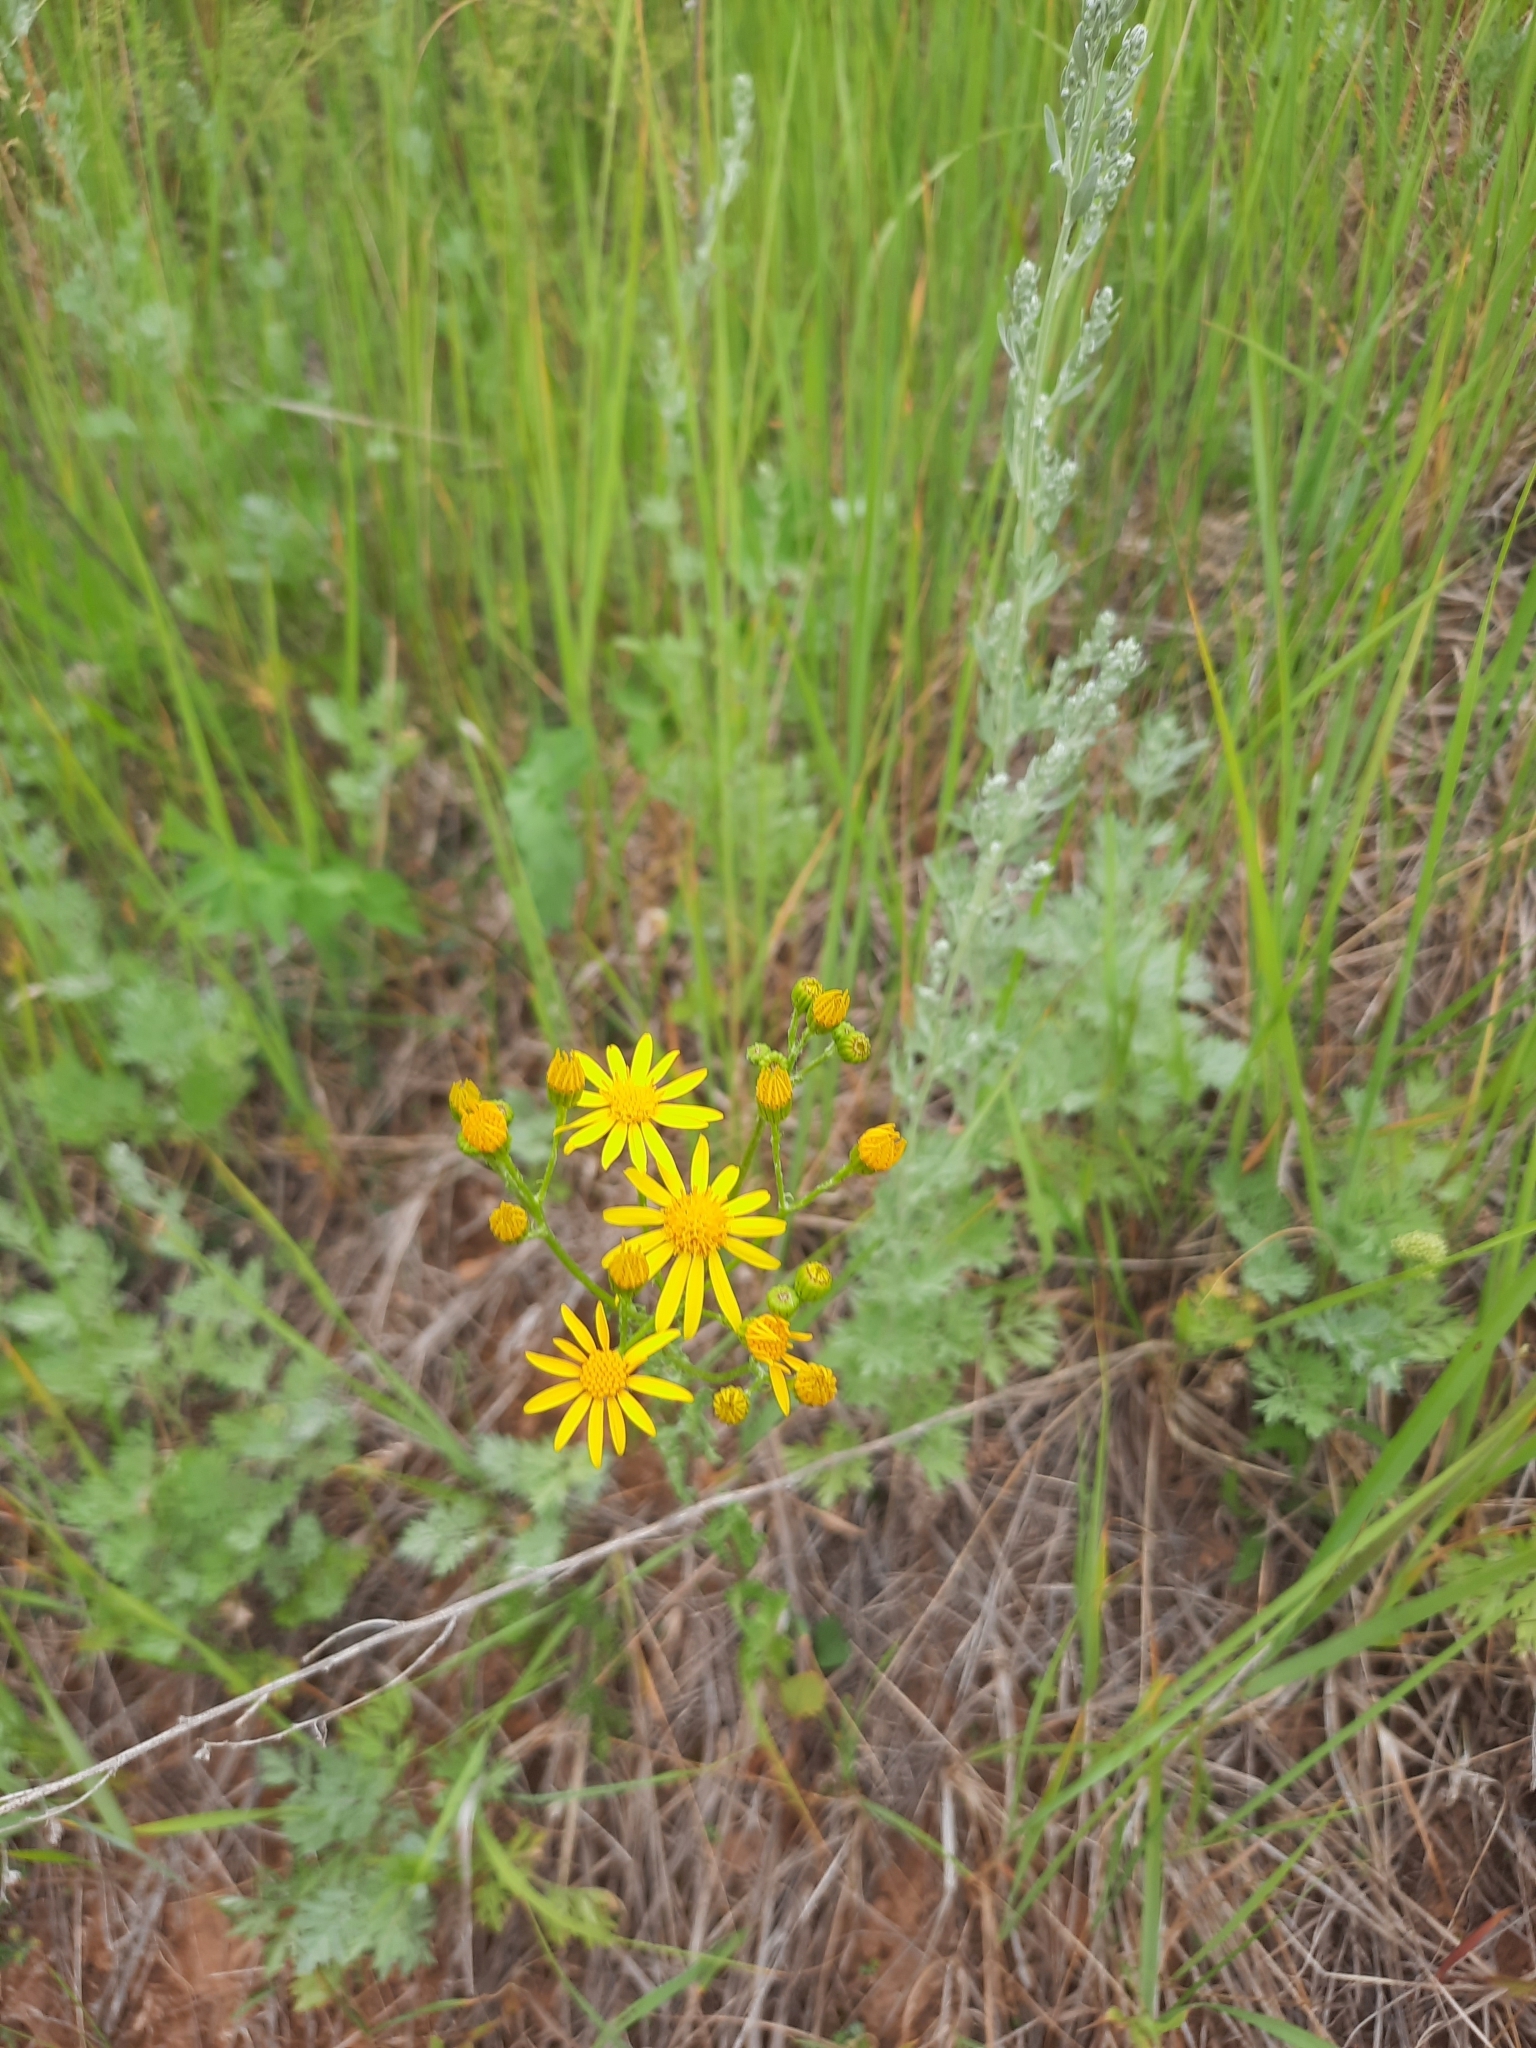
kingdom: Plantae
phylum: Tracheophyta
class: Magnoliopsida
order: Asterales
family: Asteraceae
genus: Jacobaea
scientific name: Jacobaea vulgaris
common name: Stinking willie
